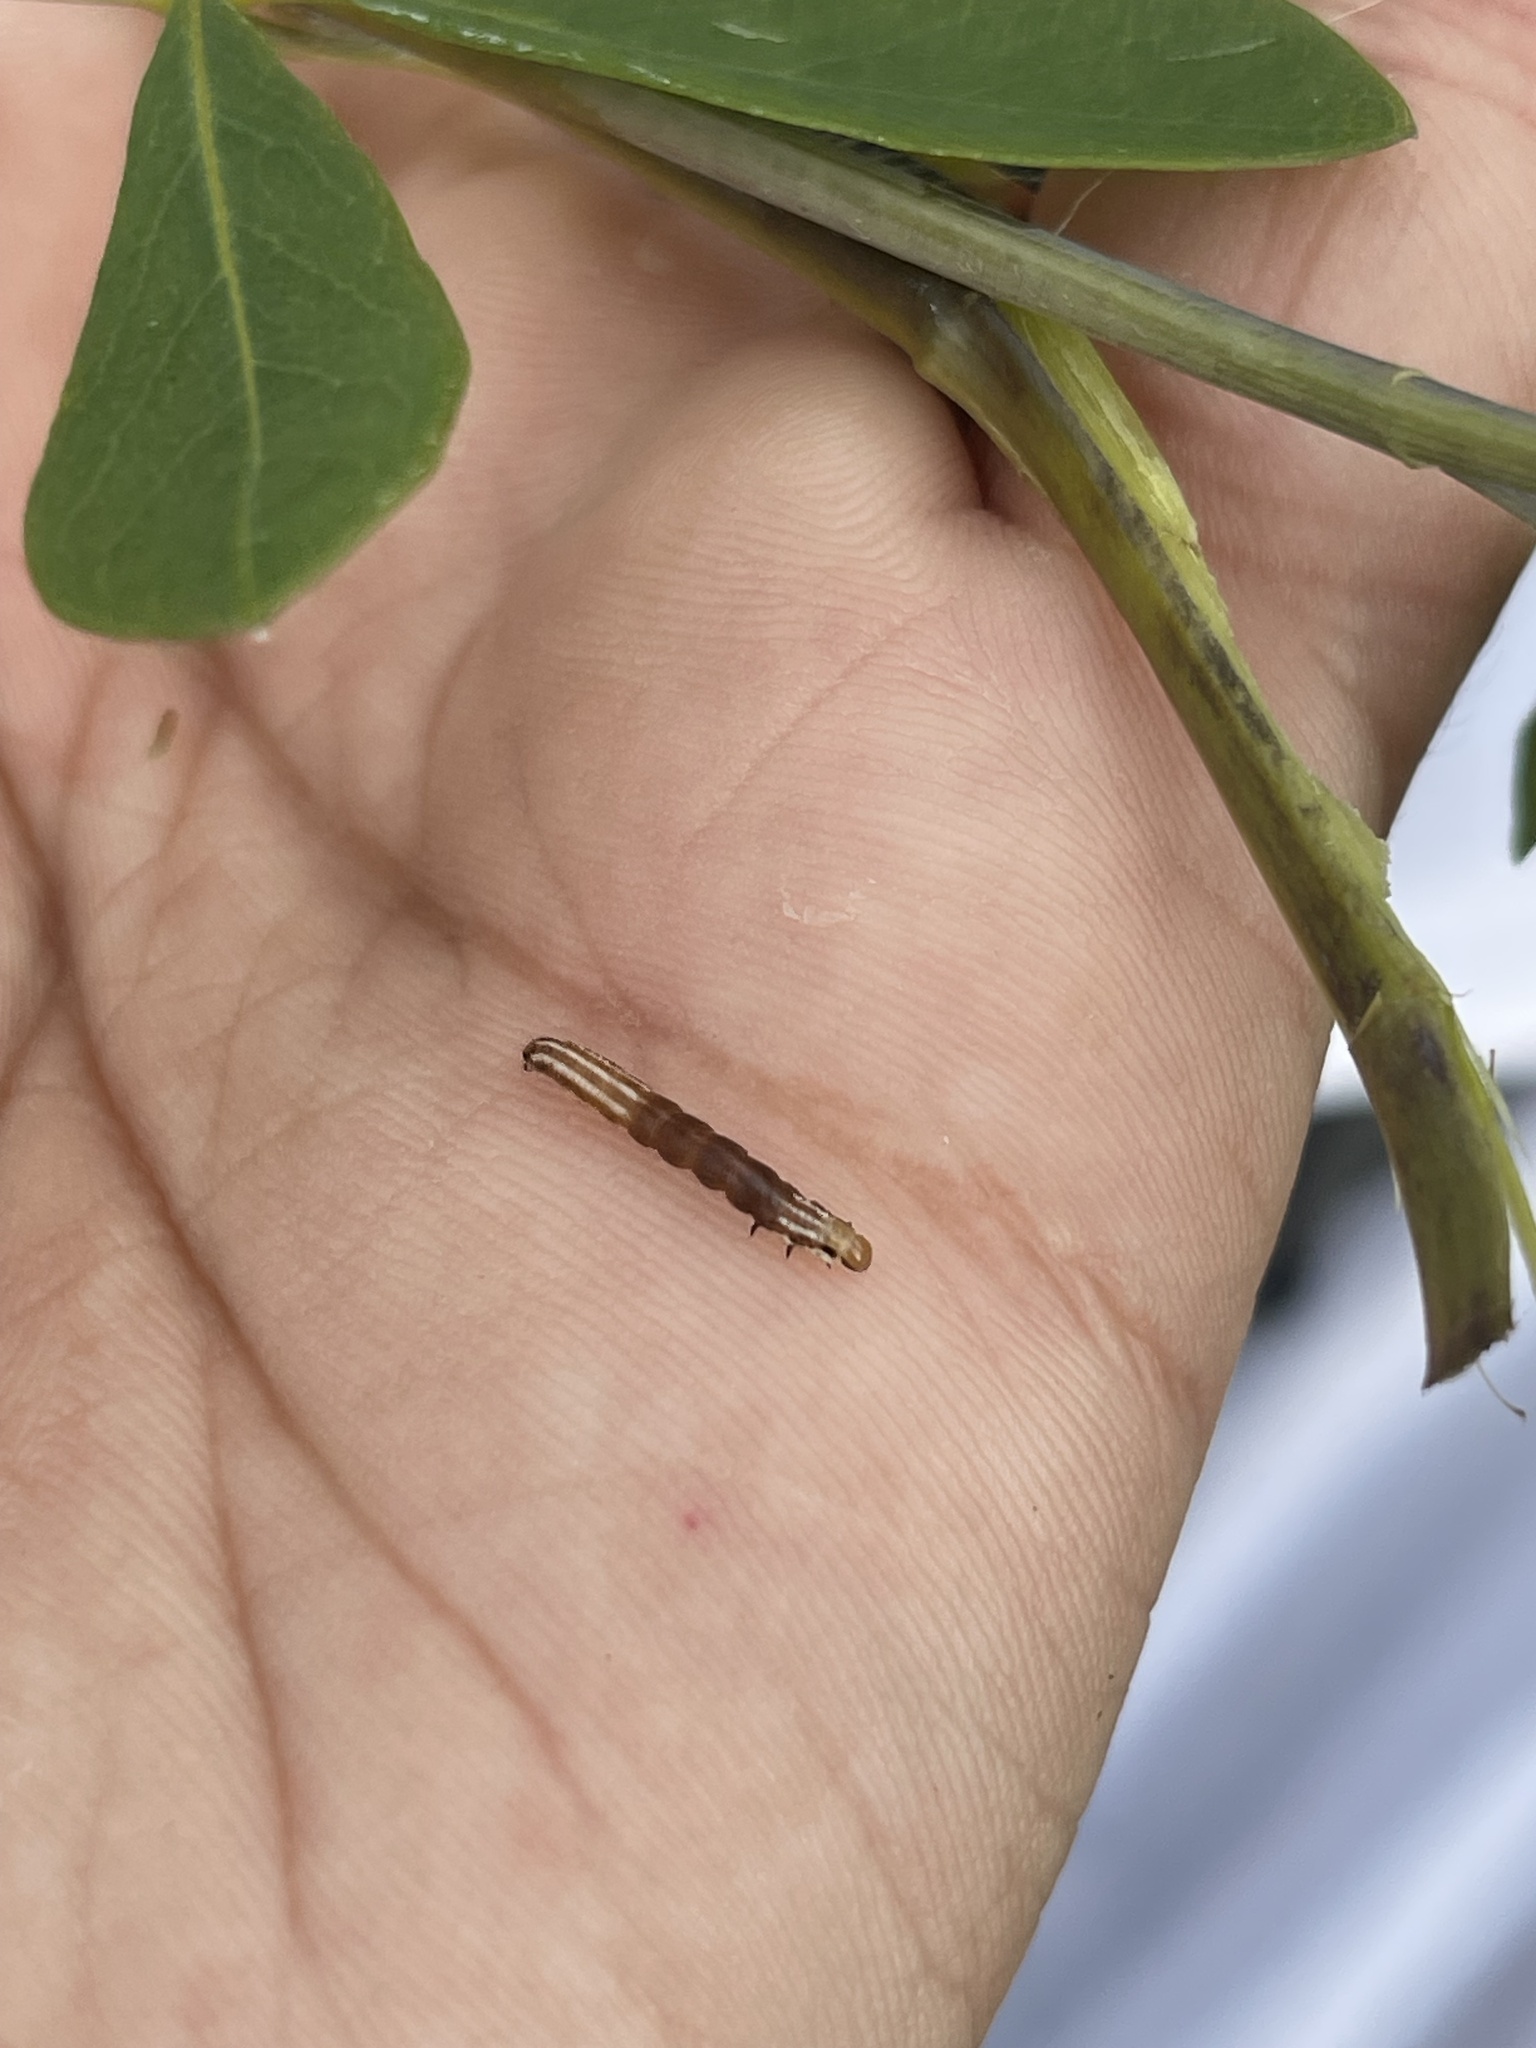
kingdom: Animalia
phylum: Arthropoda
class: Insecta
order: Lepidoptera
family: Noctuidae
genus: Papaipema
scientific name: Papaipema baptisiae
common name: Wild indigo borer moth
